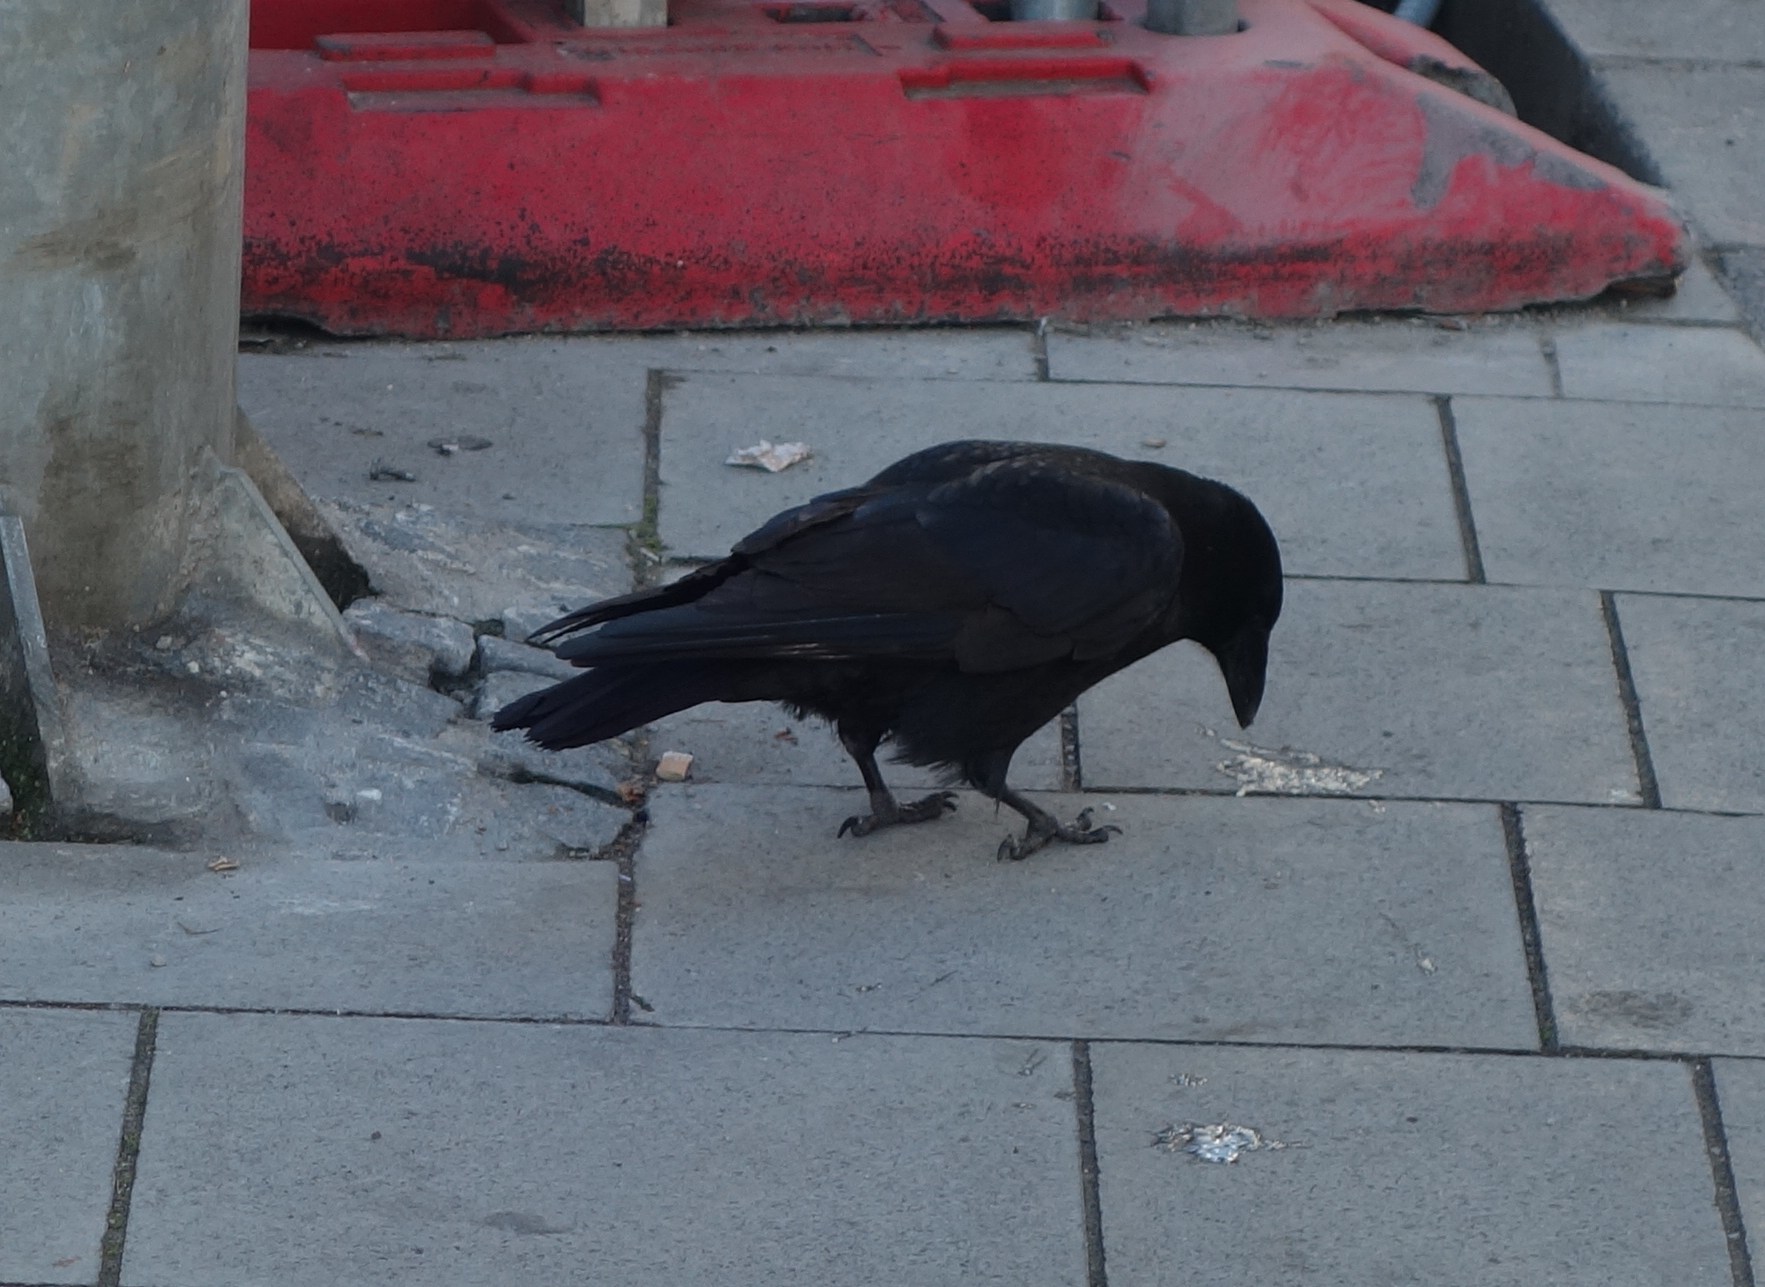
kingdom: Animalia
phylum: Chordata
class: Aves
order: Passeriformes
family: Corvidae
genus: Corvus
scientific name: Corvus corone
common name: Carrion crow
